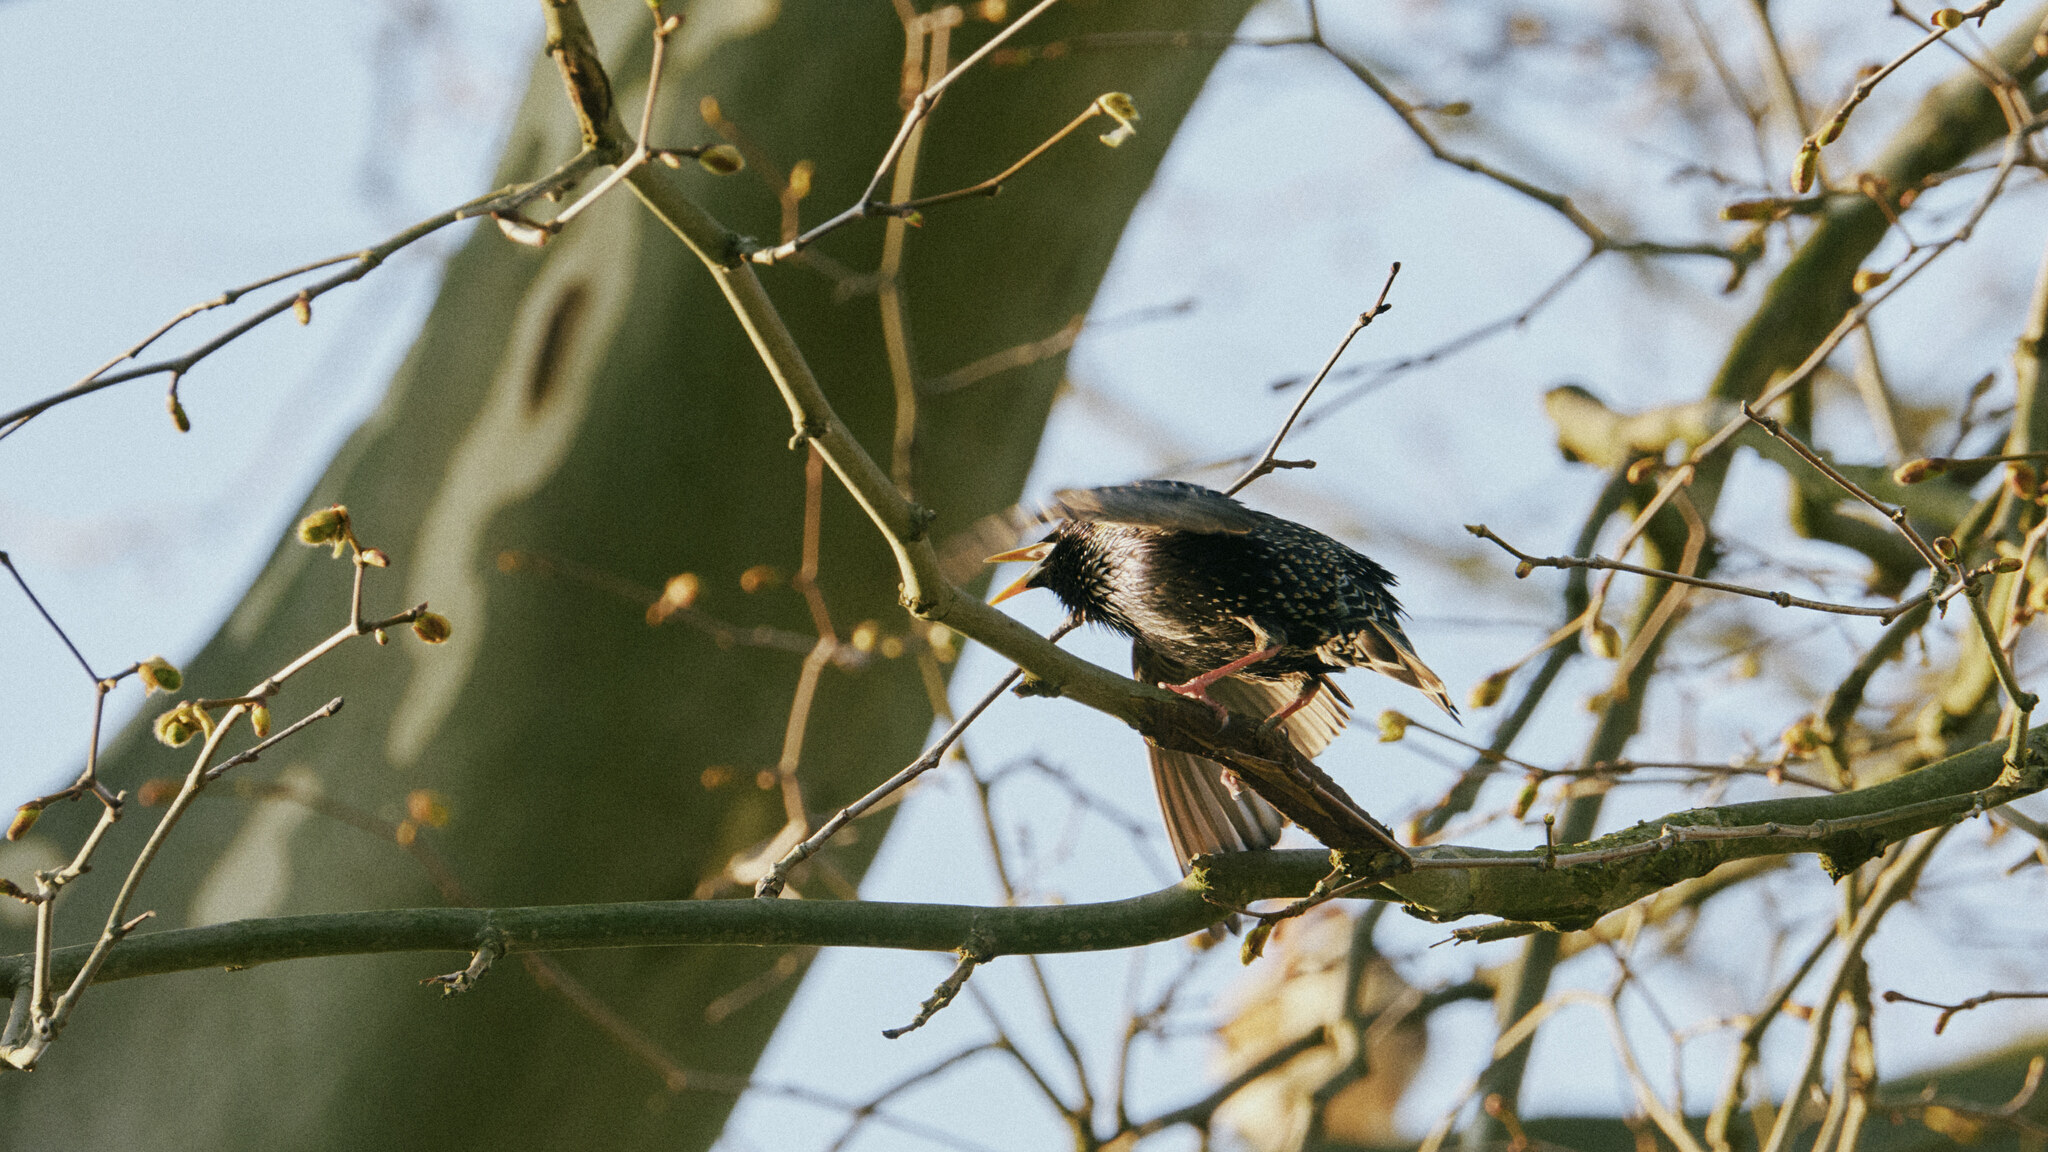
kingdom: Animalia
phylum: Chordata
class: Aves
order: Passeriformes
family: Sturnidae
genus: Sturnus
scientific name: Sturnus vulgaris
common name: Common starling
